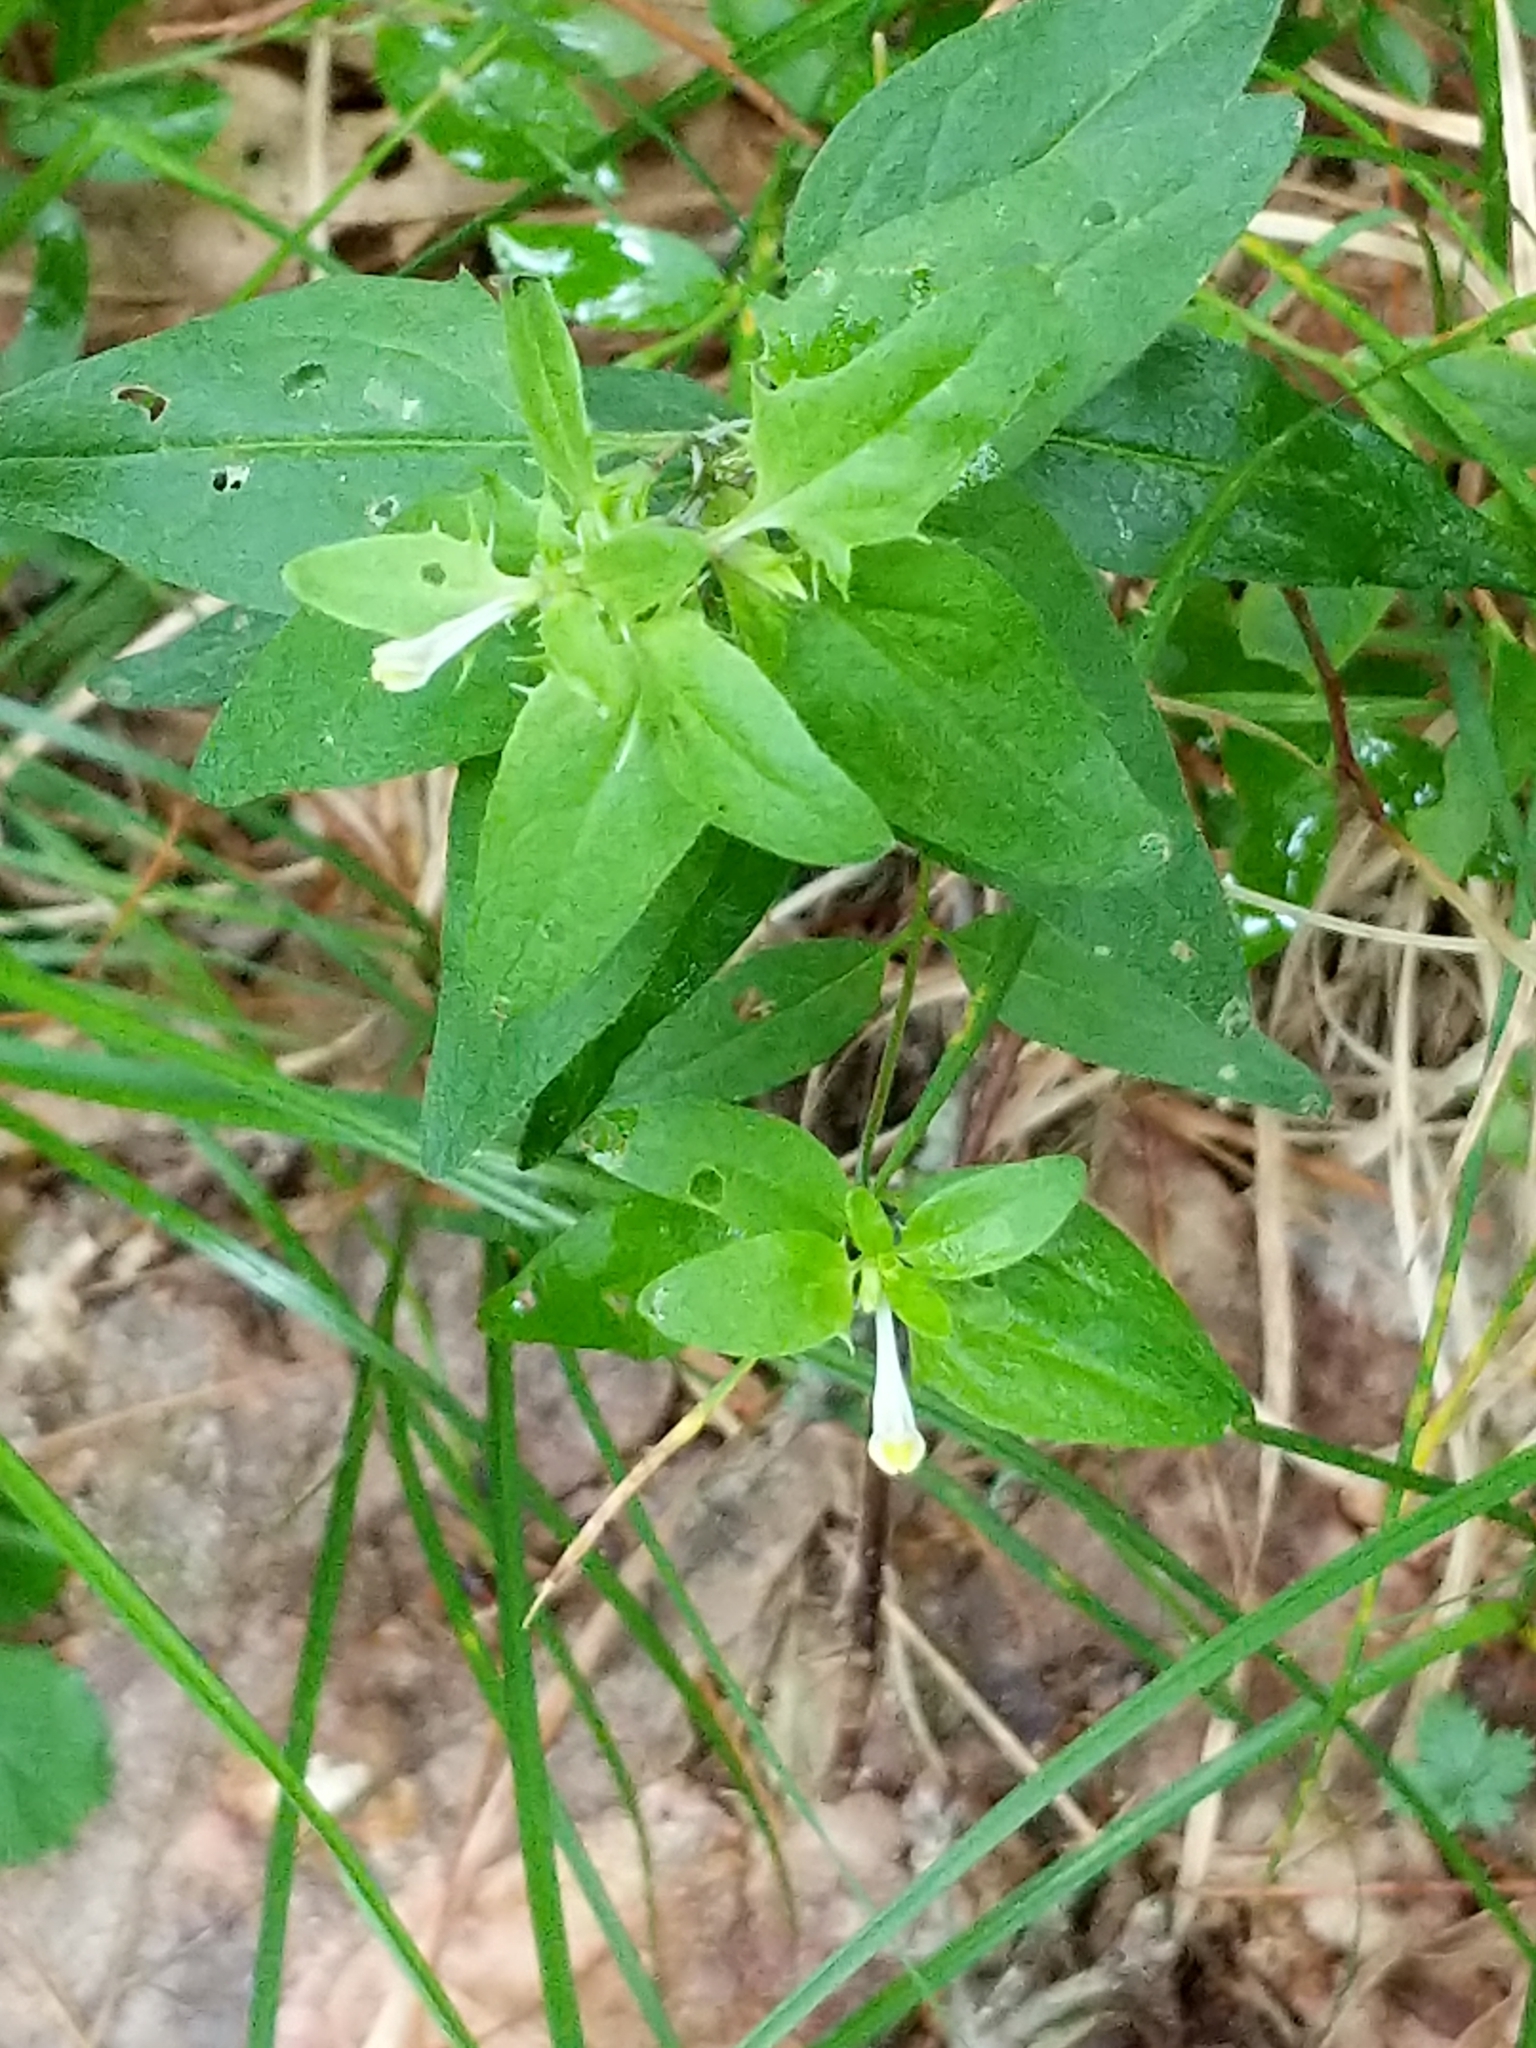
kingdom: Plantae
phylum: Tracheophyta
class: Magnoliopsida
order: Lamiales
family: Orobanchaceae
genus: Melampyrum
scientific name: Melampyrum lineare
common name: American cow-wheat
